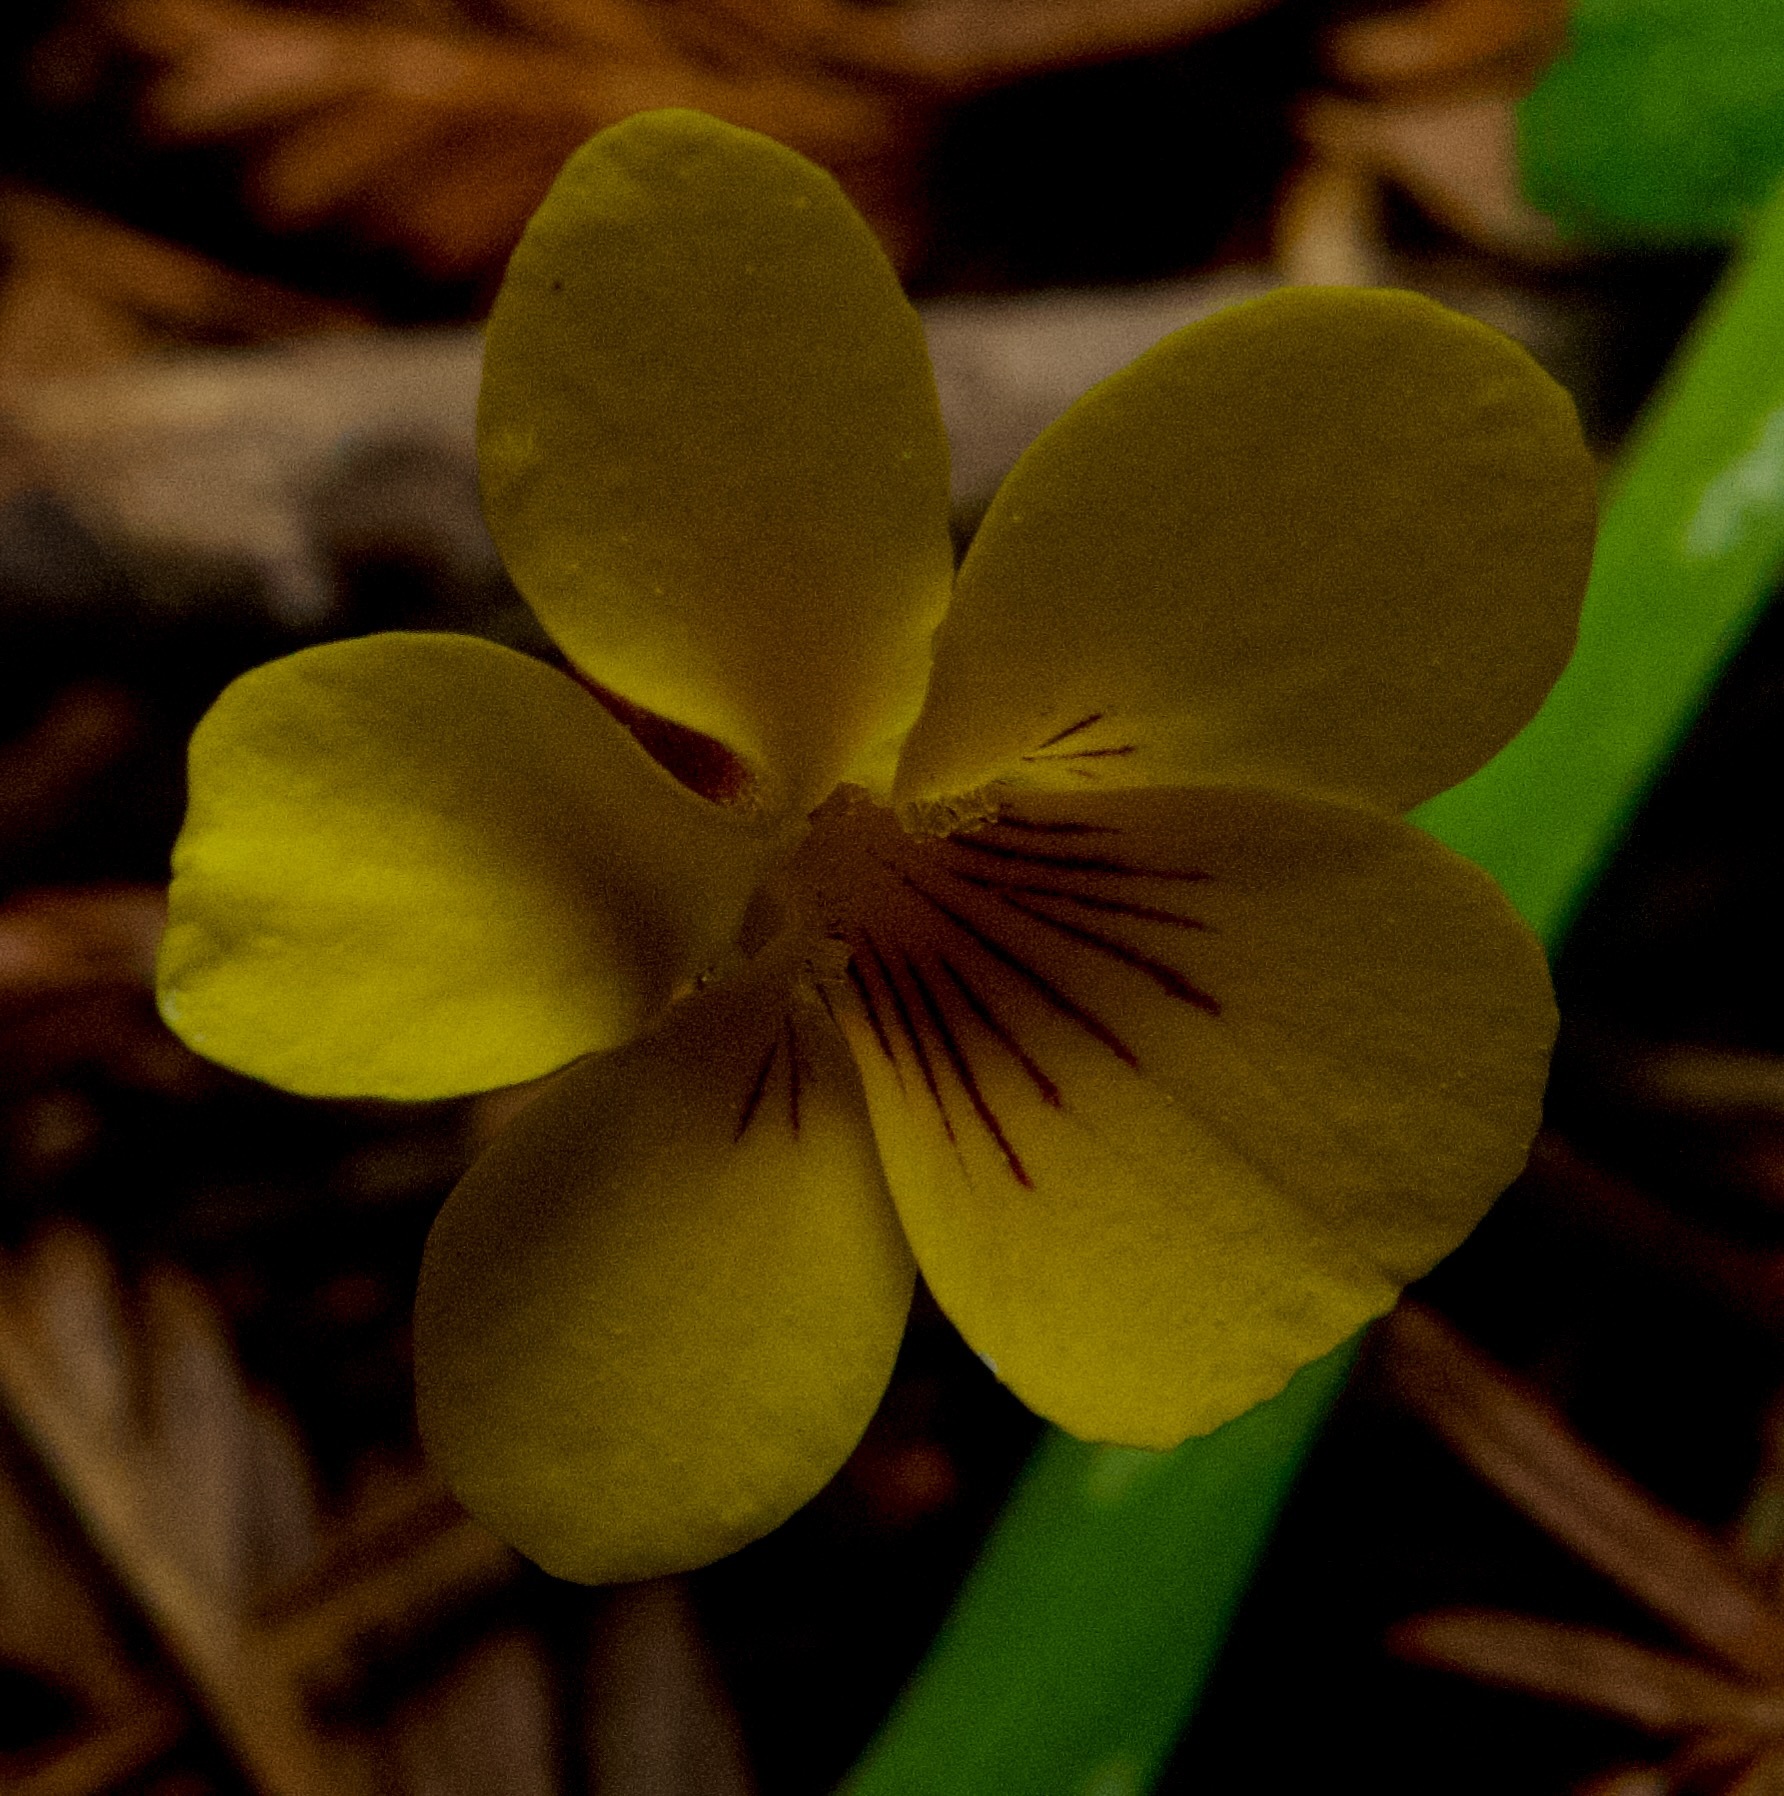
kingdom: Plantae
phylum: Tracheophyta
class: Magnoliopsida
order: Malpighiales
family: Violaceae
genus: Viola
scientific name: Viola sempervirens
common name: Evergreen violet
